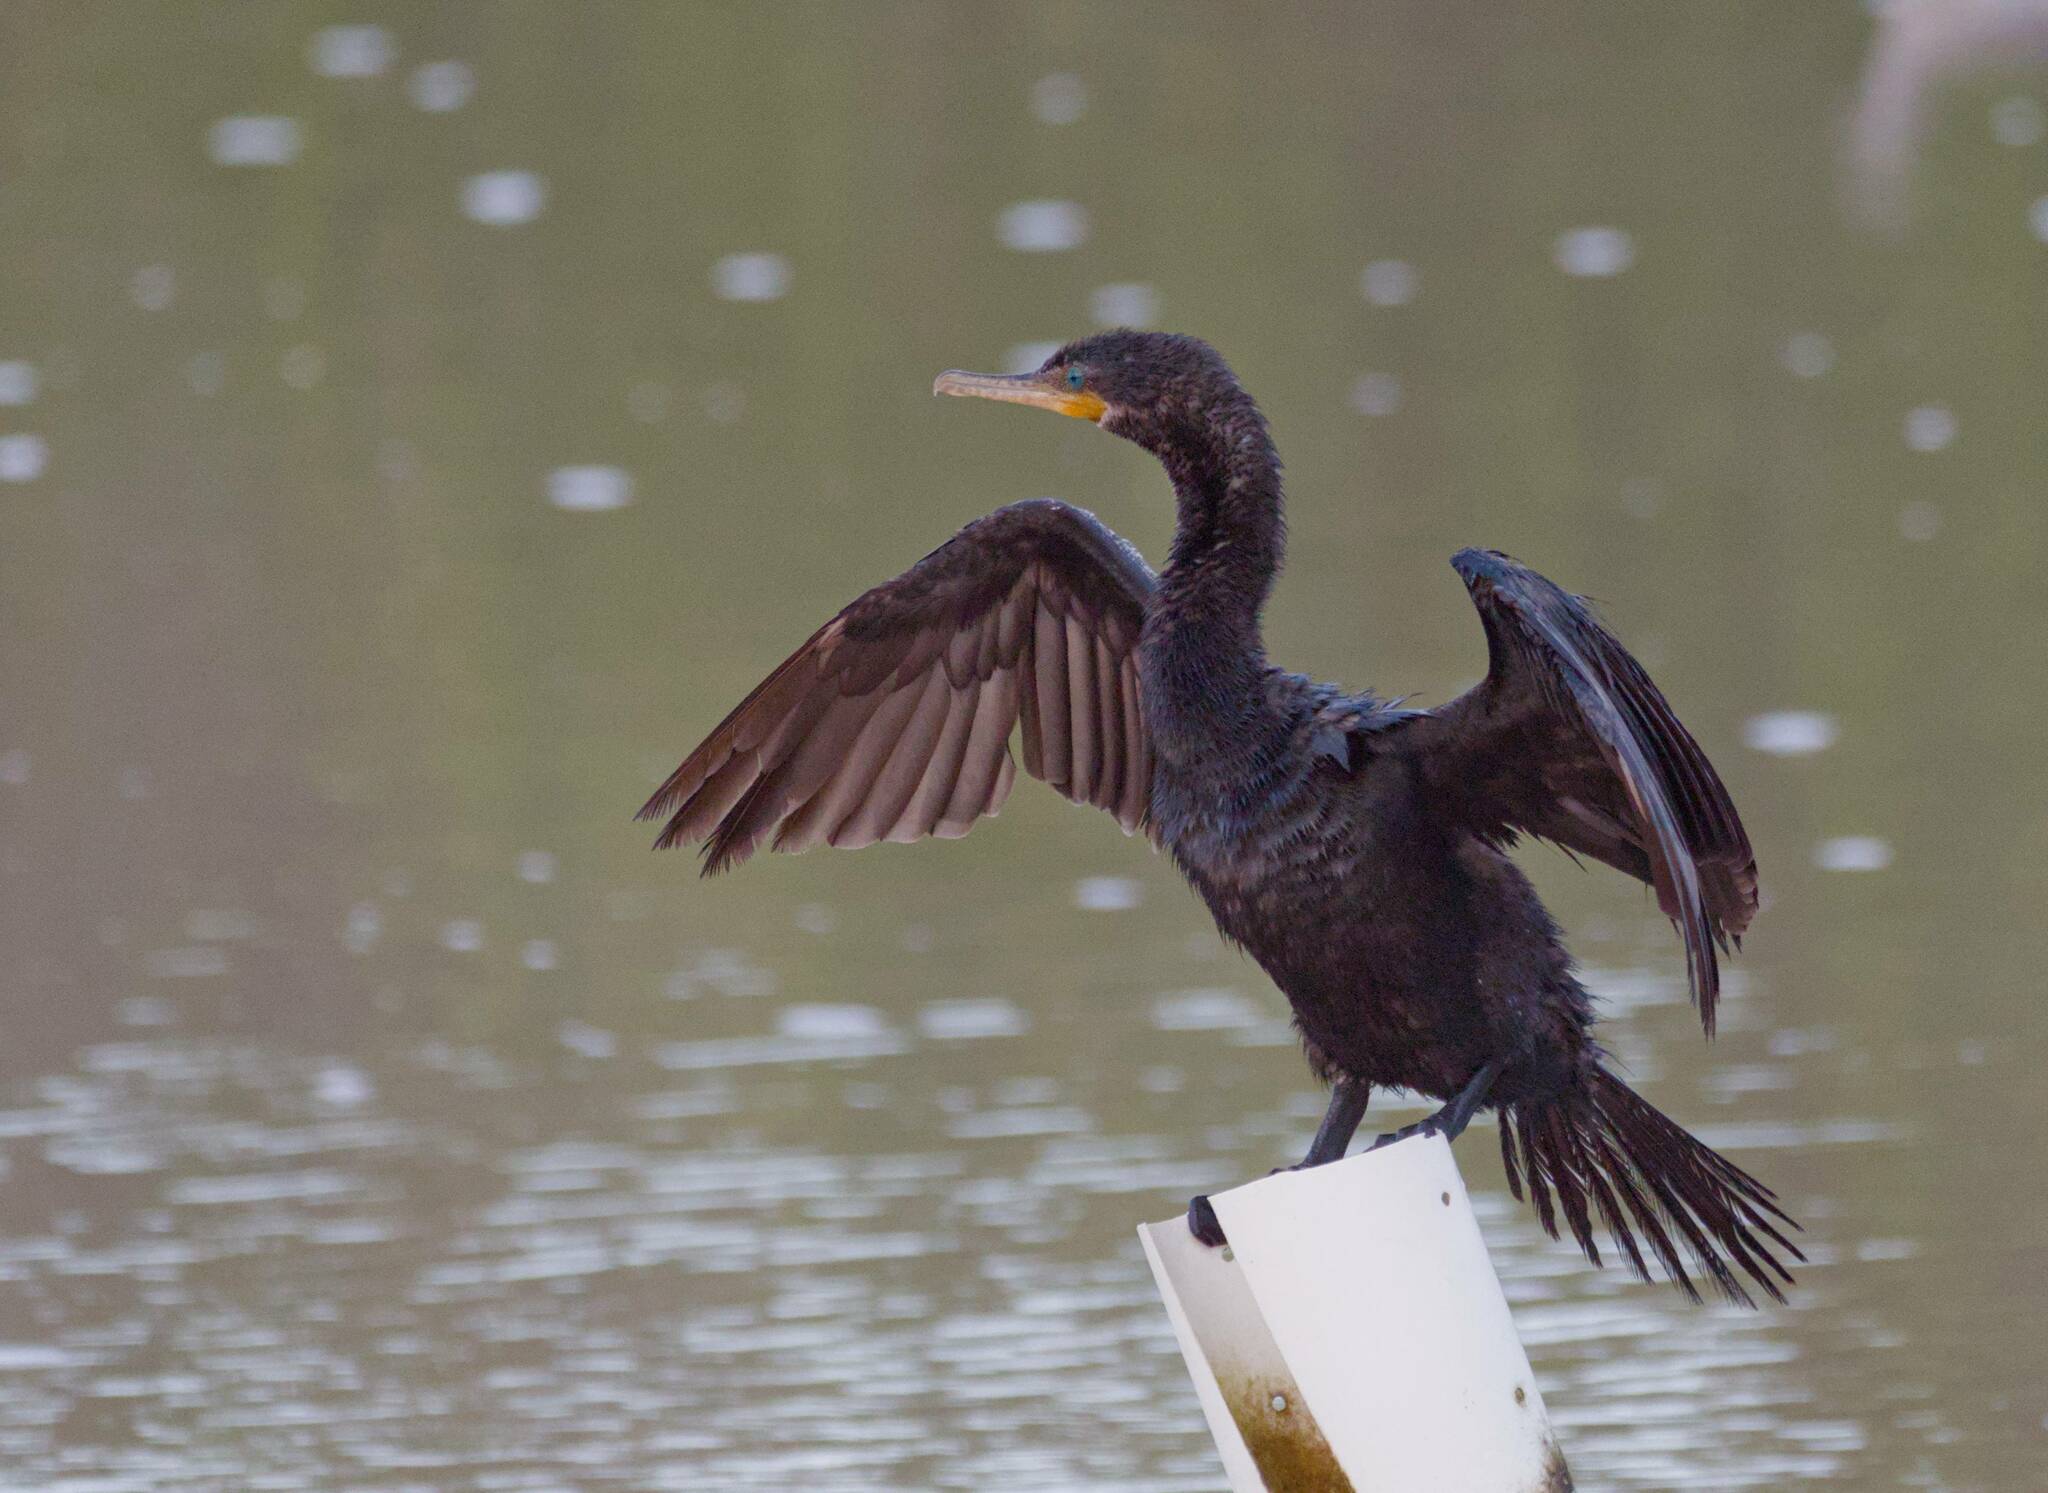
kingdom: Animalia
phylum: Chordata
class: Aves
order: Suliformes
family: Phalacrocoracidae
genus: Phalacrocorax
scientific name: Phalacrocorax brasilianus
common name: Neotropic cormorant
